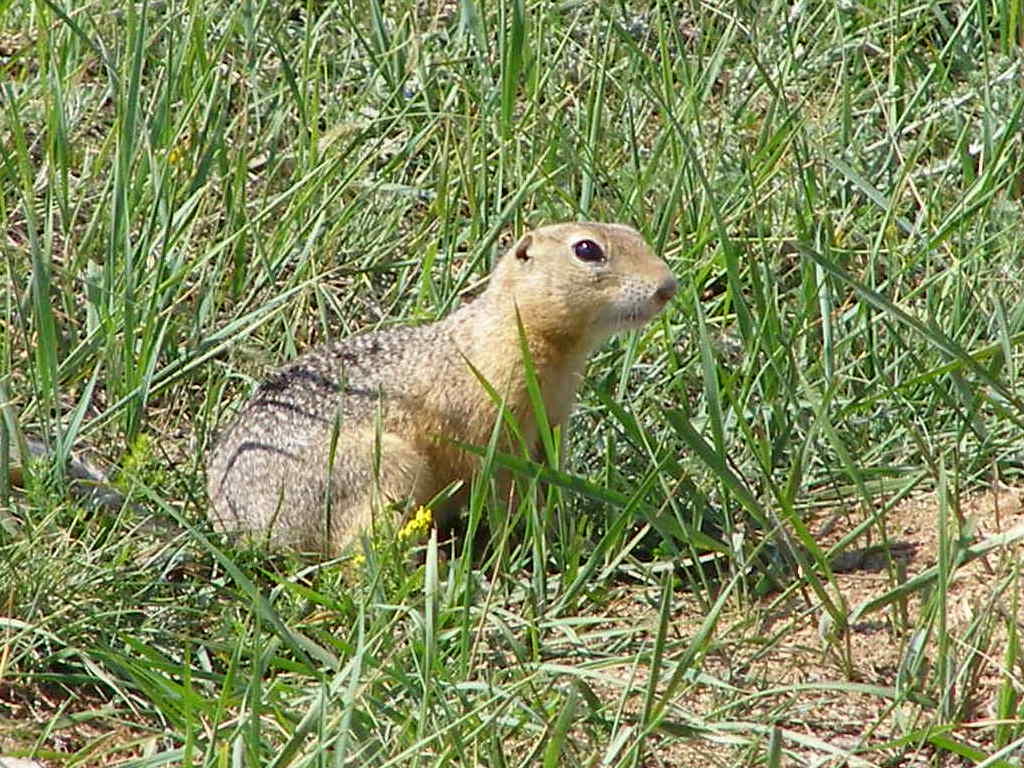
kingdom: Animalia
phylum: Chordata
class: Mammalia
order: Rodentia
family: Sciuridae
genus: Urocitellus
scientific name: Urocitellus undulatus
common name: Long-tailed ground squirrel
